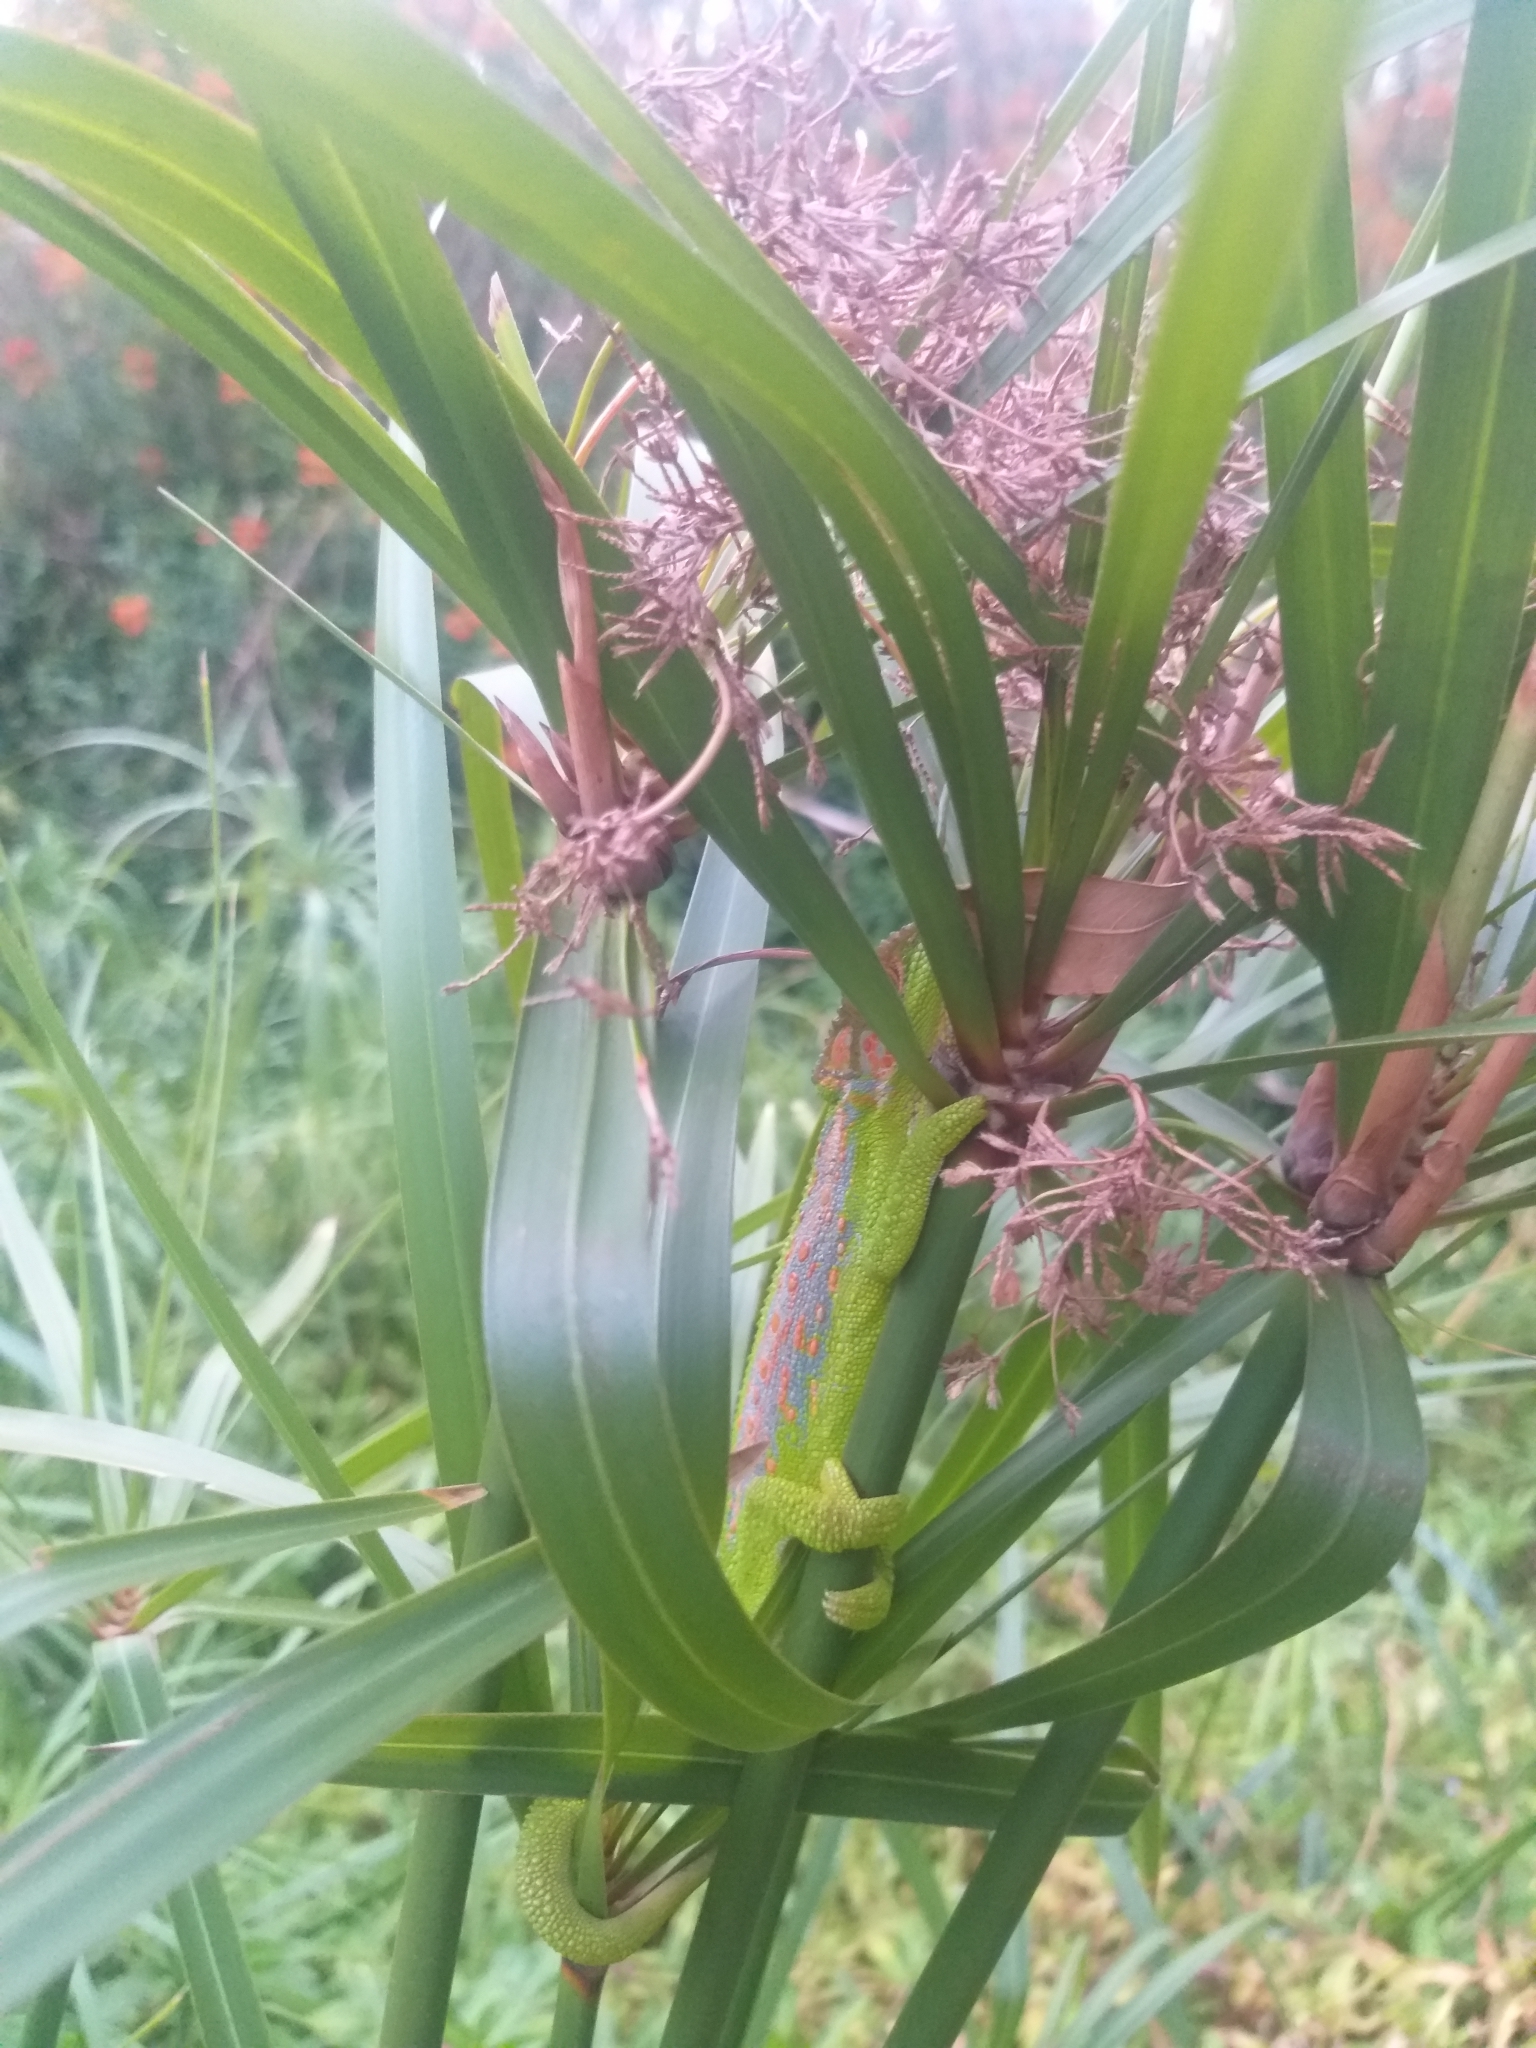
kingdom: Animalia
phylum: Chordata
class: Squamata
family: Chamaeleonidae
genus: Bradypodion
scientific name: Bradypodion pumilum
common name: Cape dwarf chameleon
